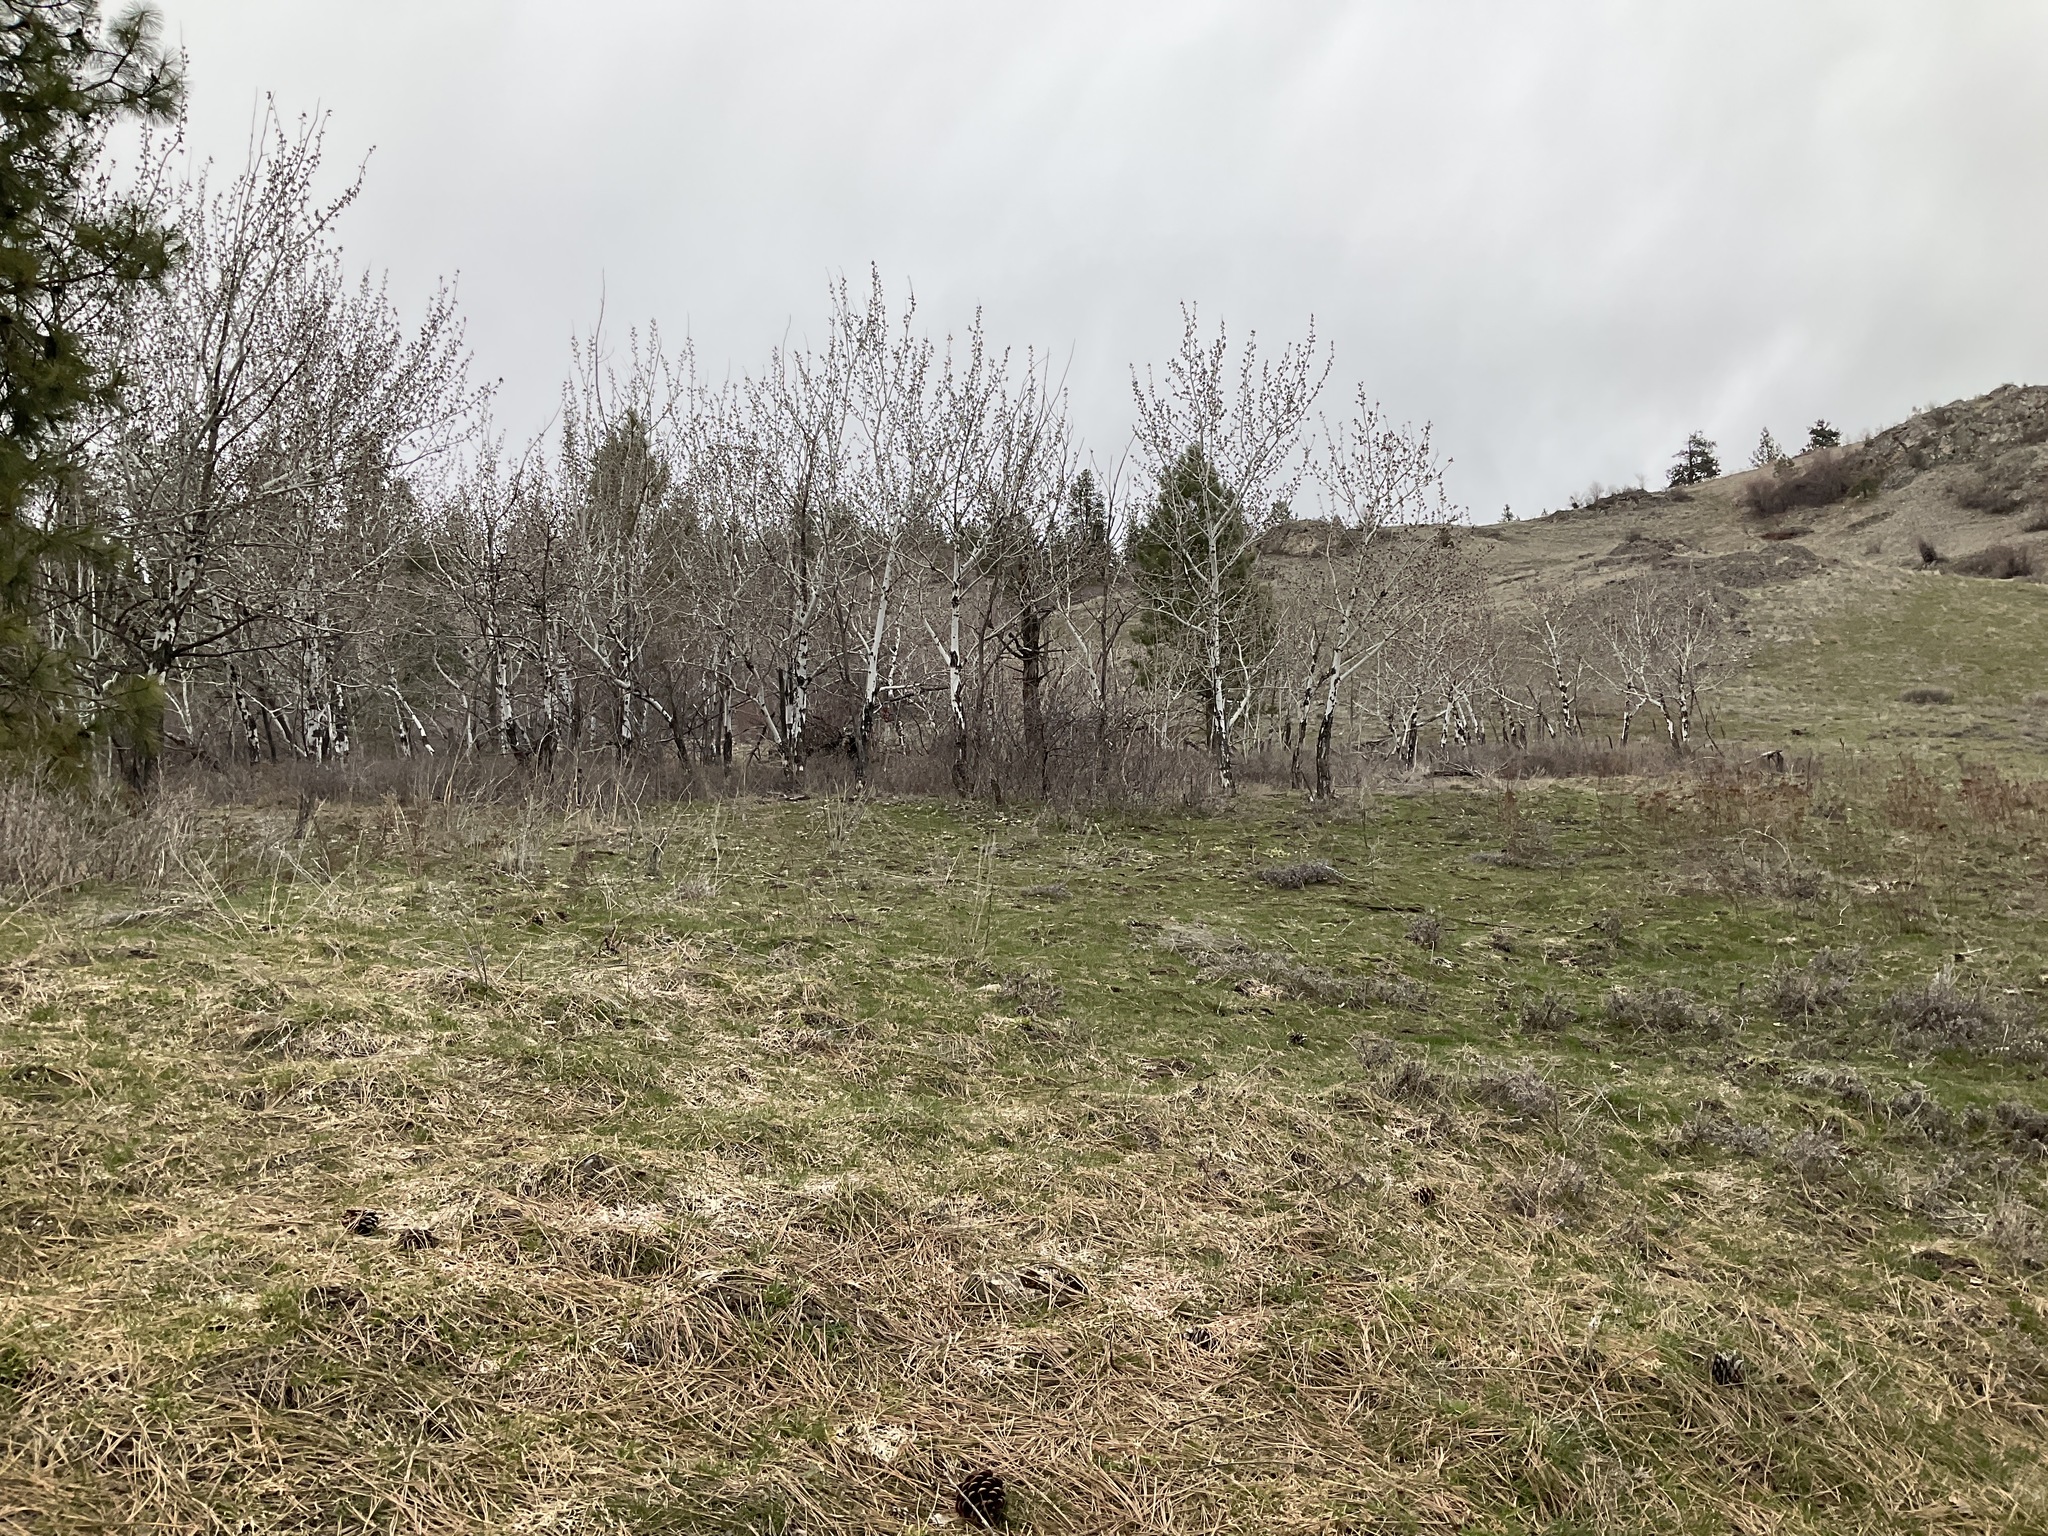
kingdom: Plantae
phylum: Tracheophyta
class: Magnoliopsida
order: Malpighiales
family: Salicaceae
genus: Populus
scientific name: Populus tremuloides
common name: Quaking aspen
